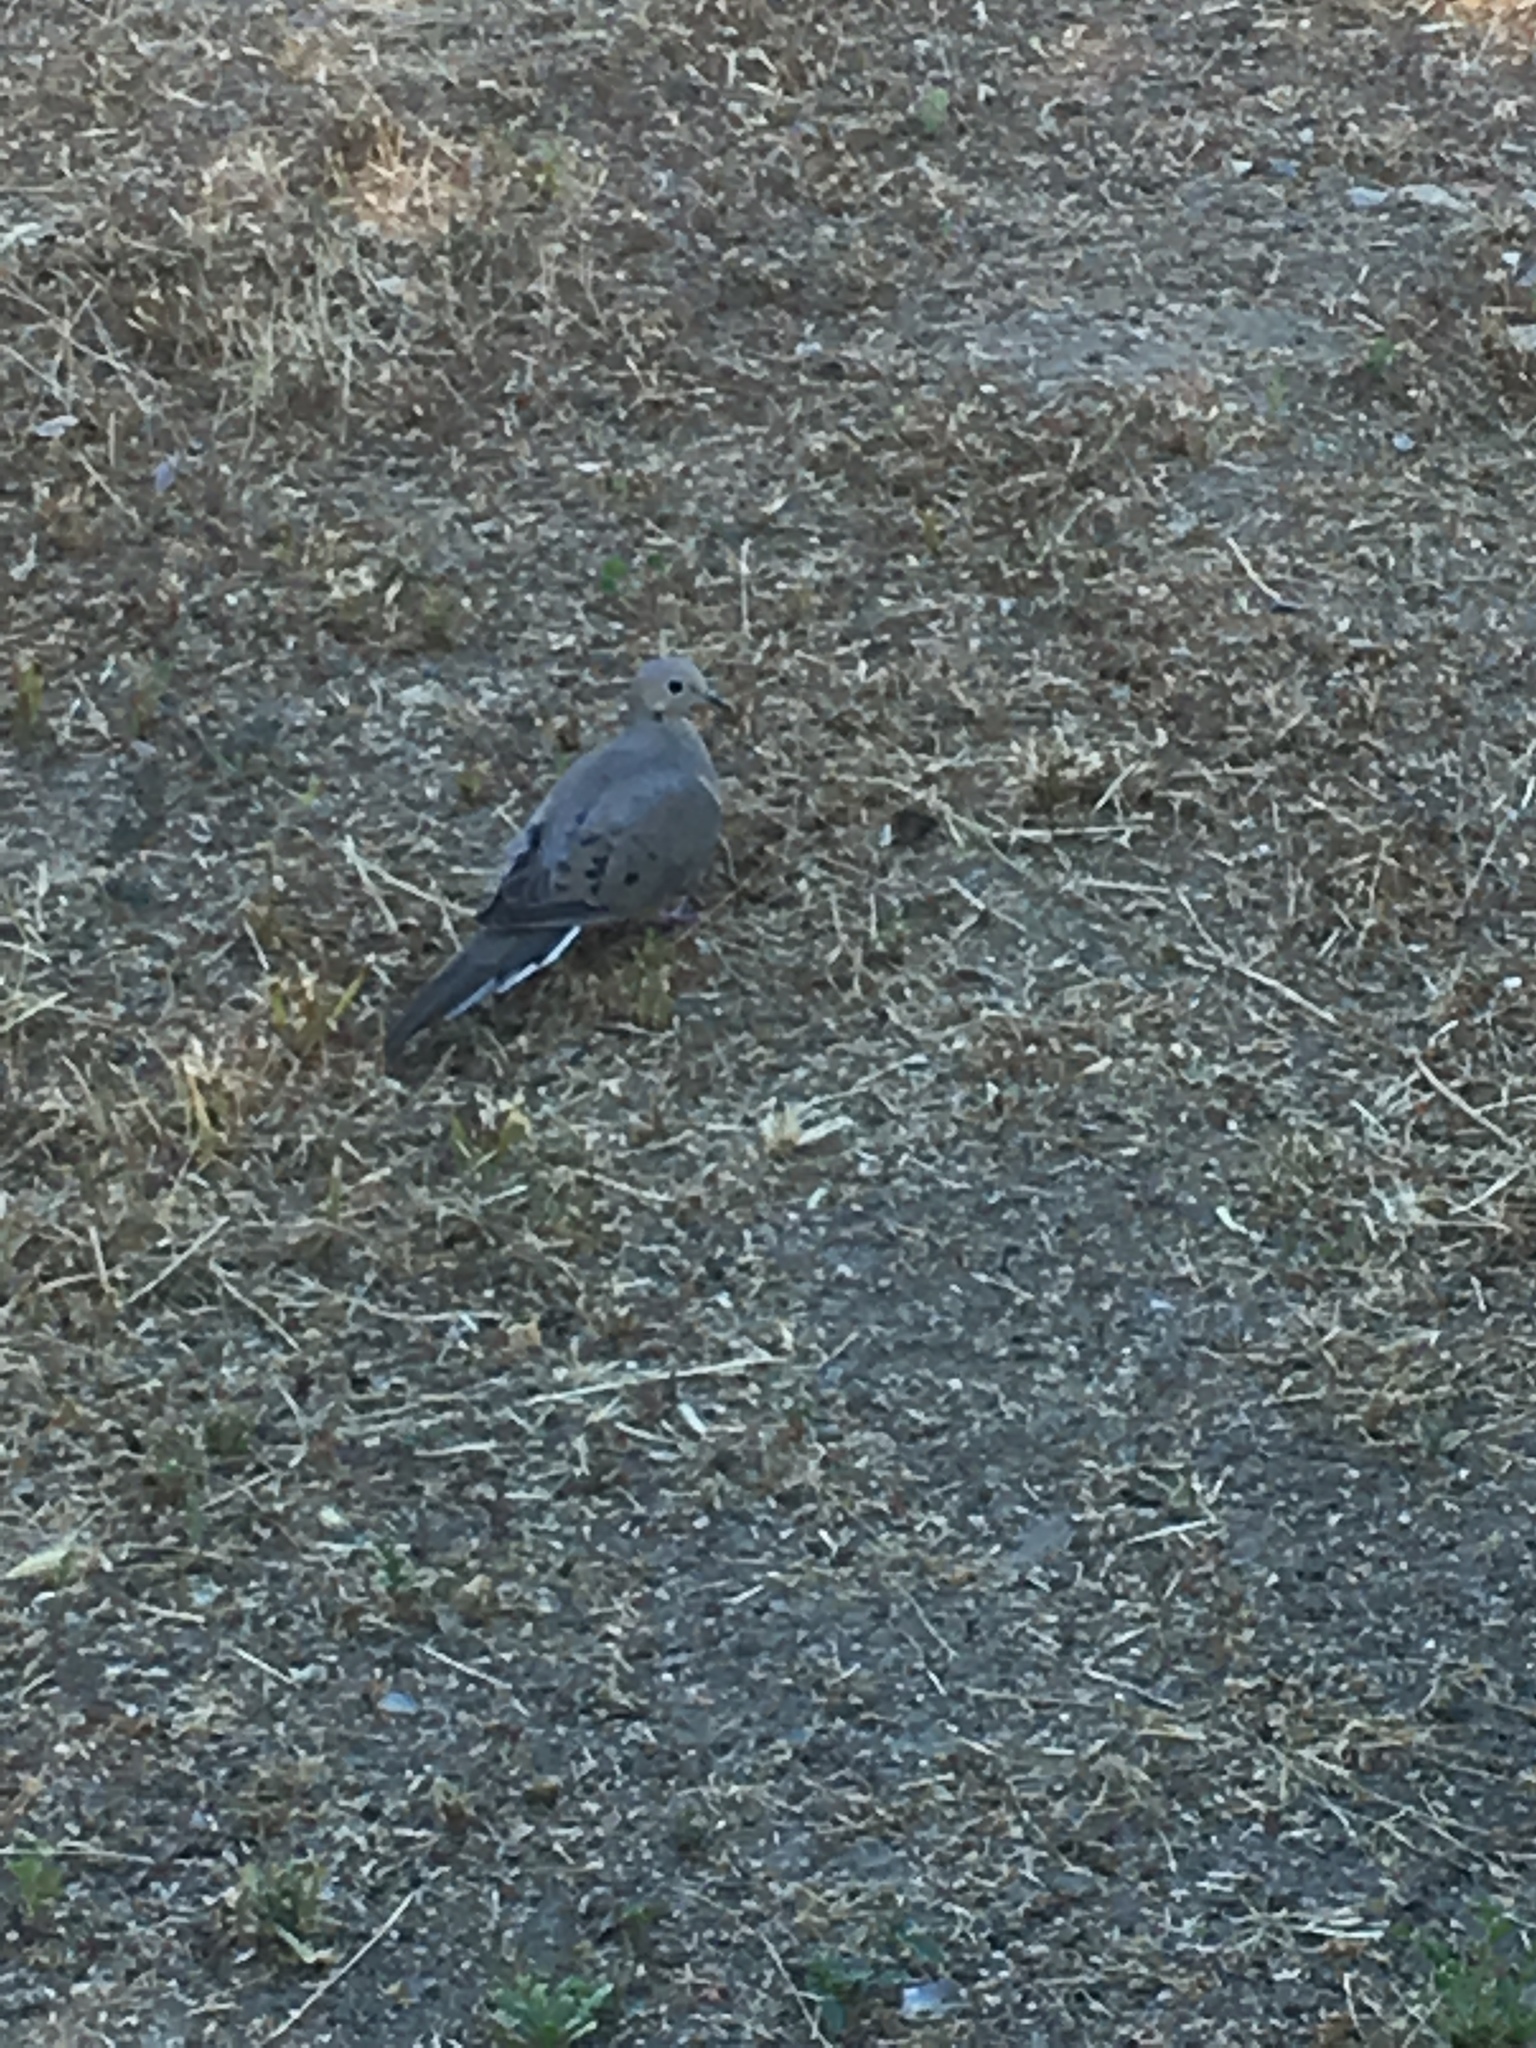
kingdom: Animalia
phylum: Chordata
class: Aves
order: Columbiformes
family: Columbidae
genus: Zenaida
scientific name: Zenaida macroura
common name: Mourning dove
